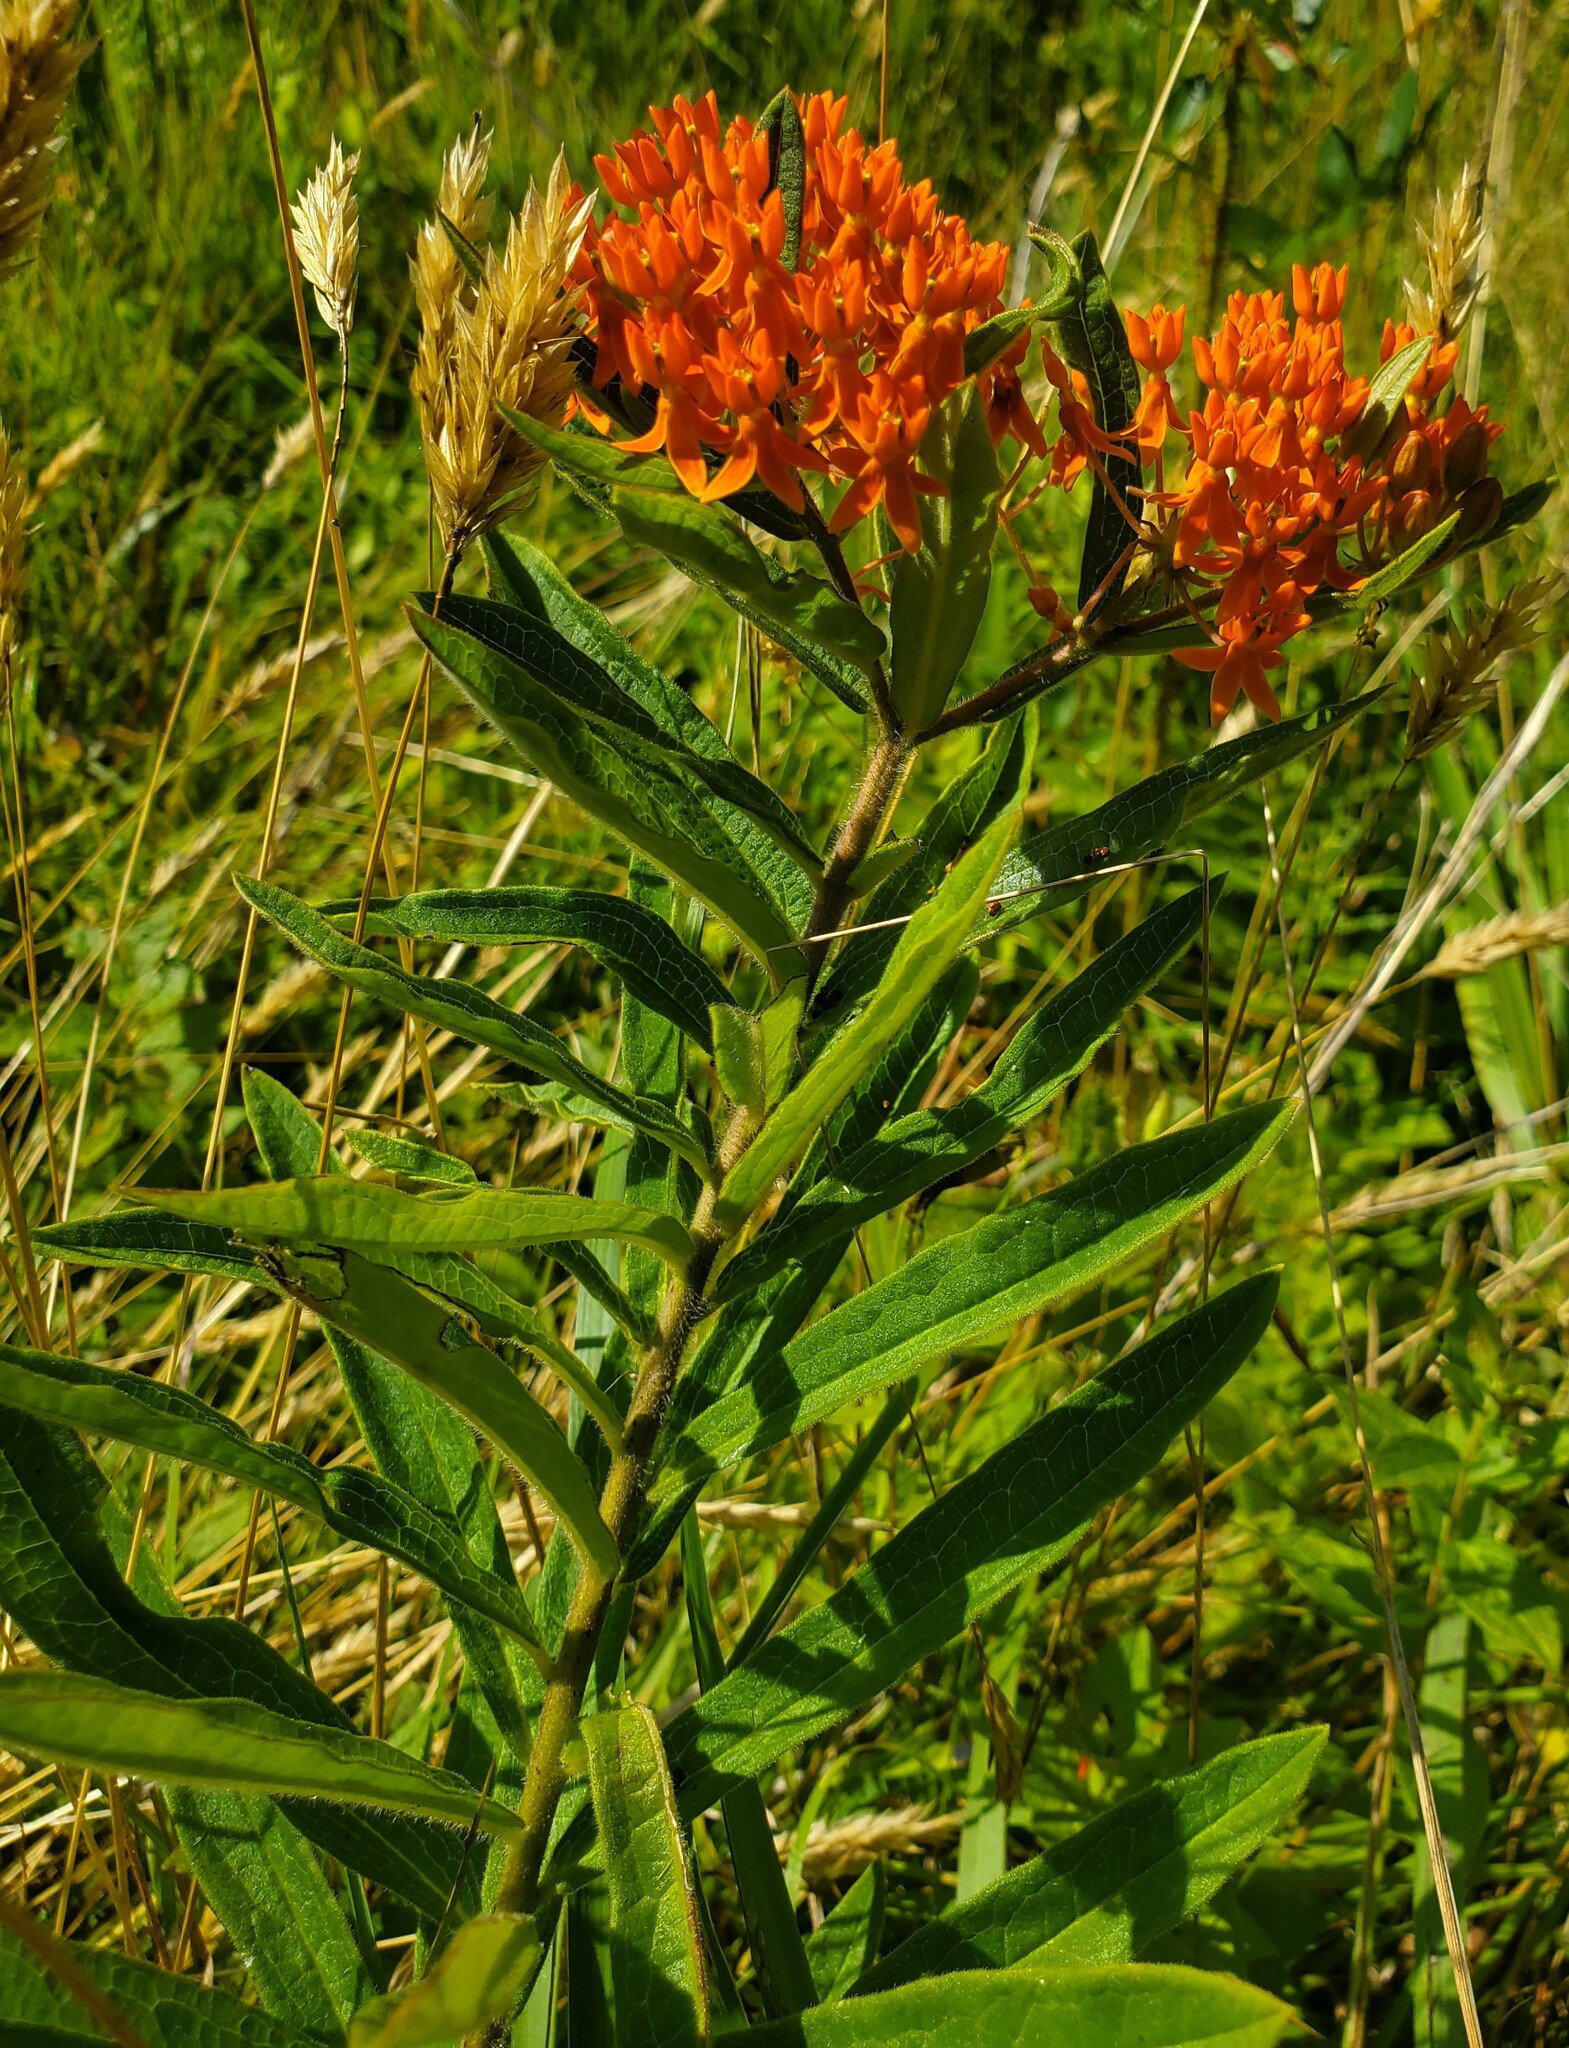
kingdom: Plantae
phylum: Tracheophyta
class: Magnoliopsida
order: Gentianales
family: Apocynaceae
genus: Asclepias
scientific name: Asclepias tuberosa
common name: Butterfly milkweed
